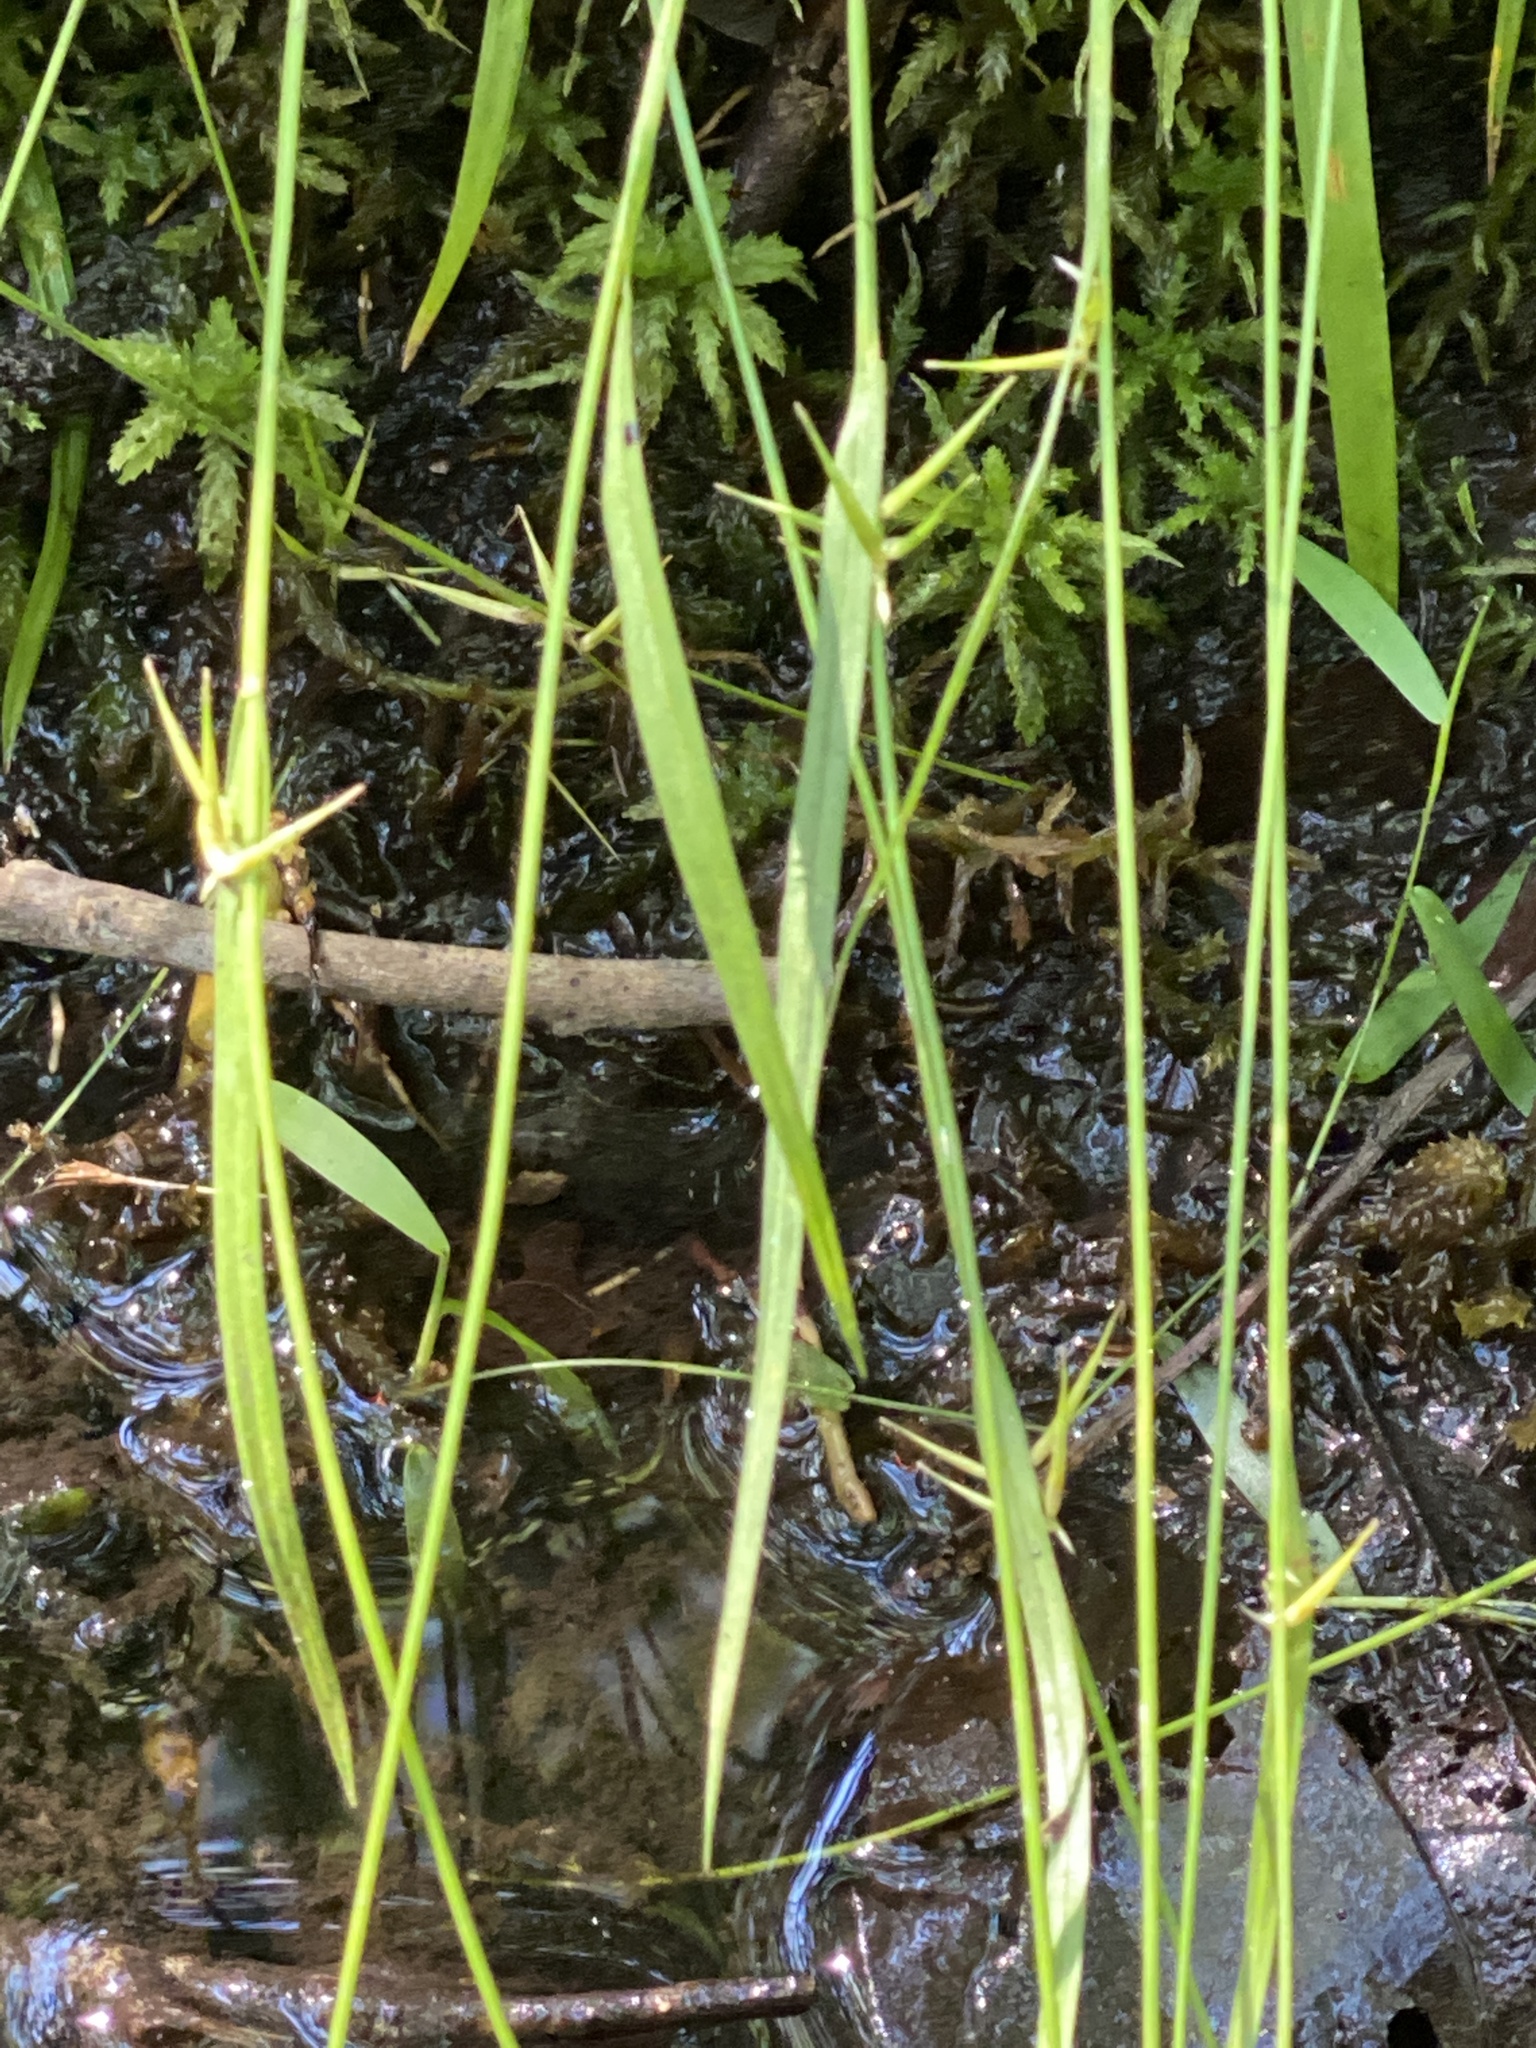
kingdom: Plantae
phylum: Tracheophyta
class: Liliopsida
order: Poales
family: Cyperaceae
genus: Carex
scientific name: Carex collinsii
